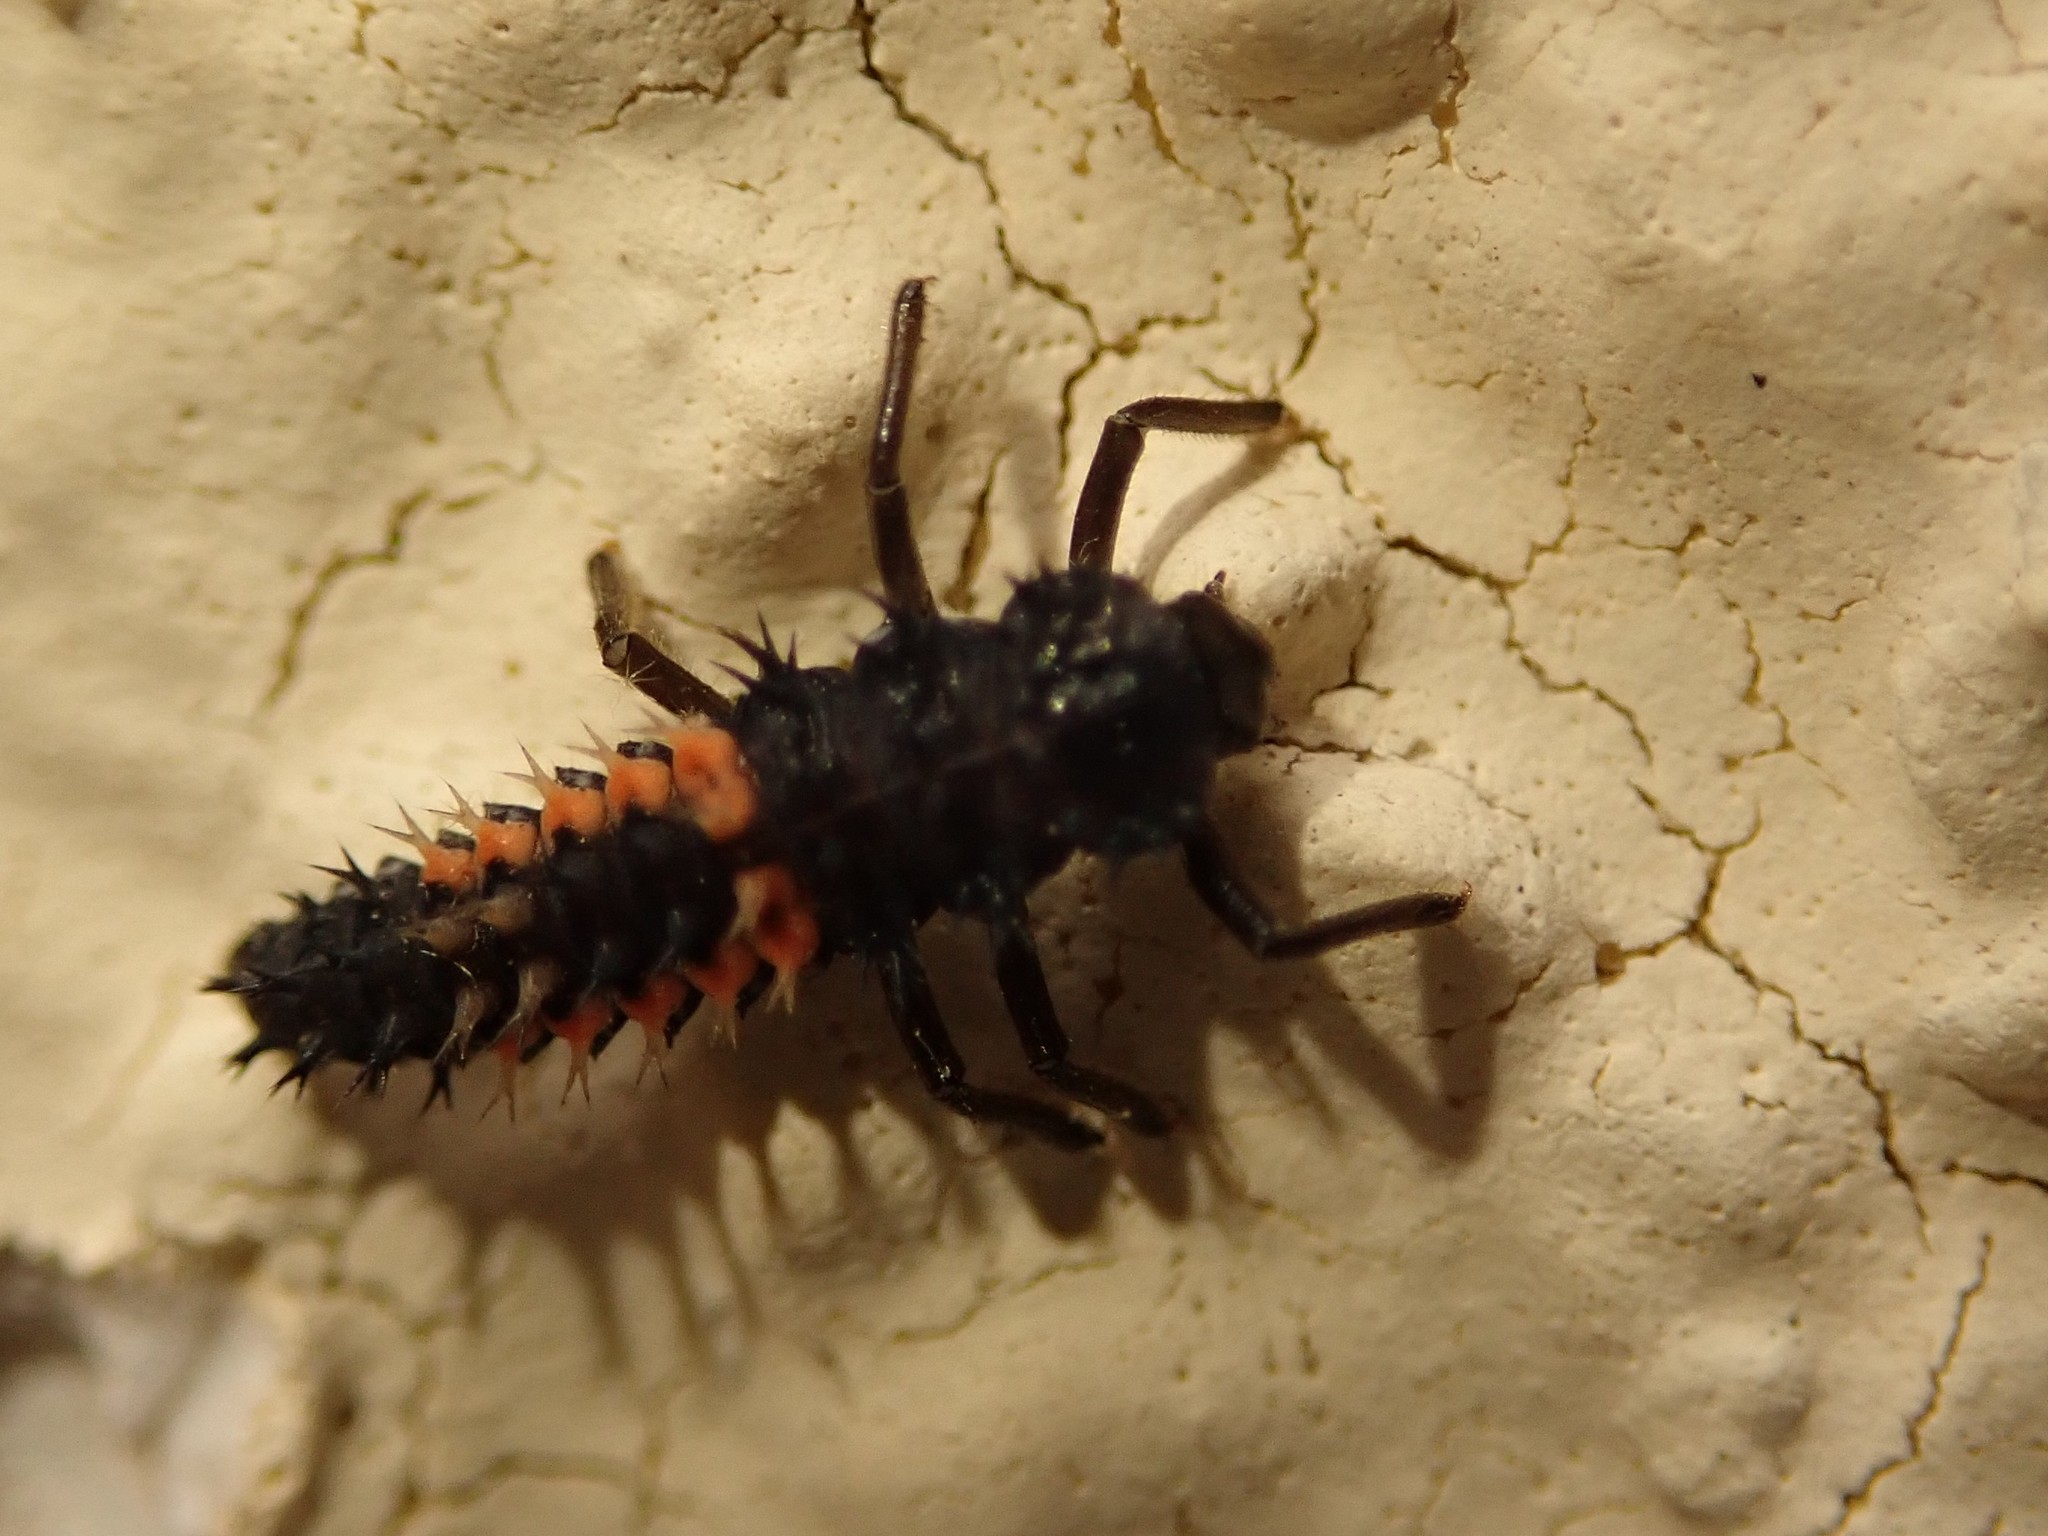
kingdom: Animalia
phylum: Arthropoda
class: Insecta
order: Coleoptera
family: Coccinellidae
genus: Harmonia
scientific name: Harmonia axyridis
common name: Harlequin ladybird
